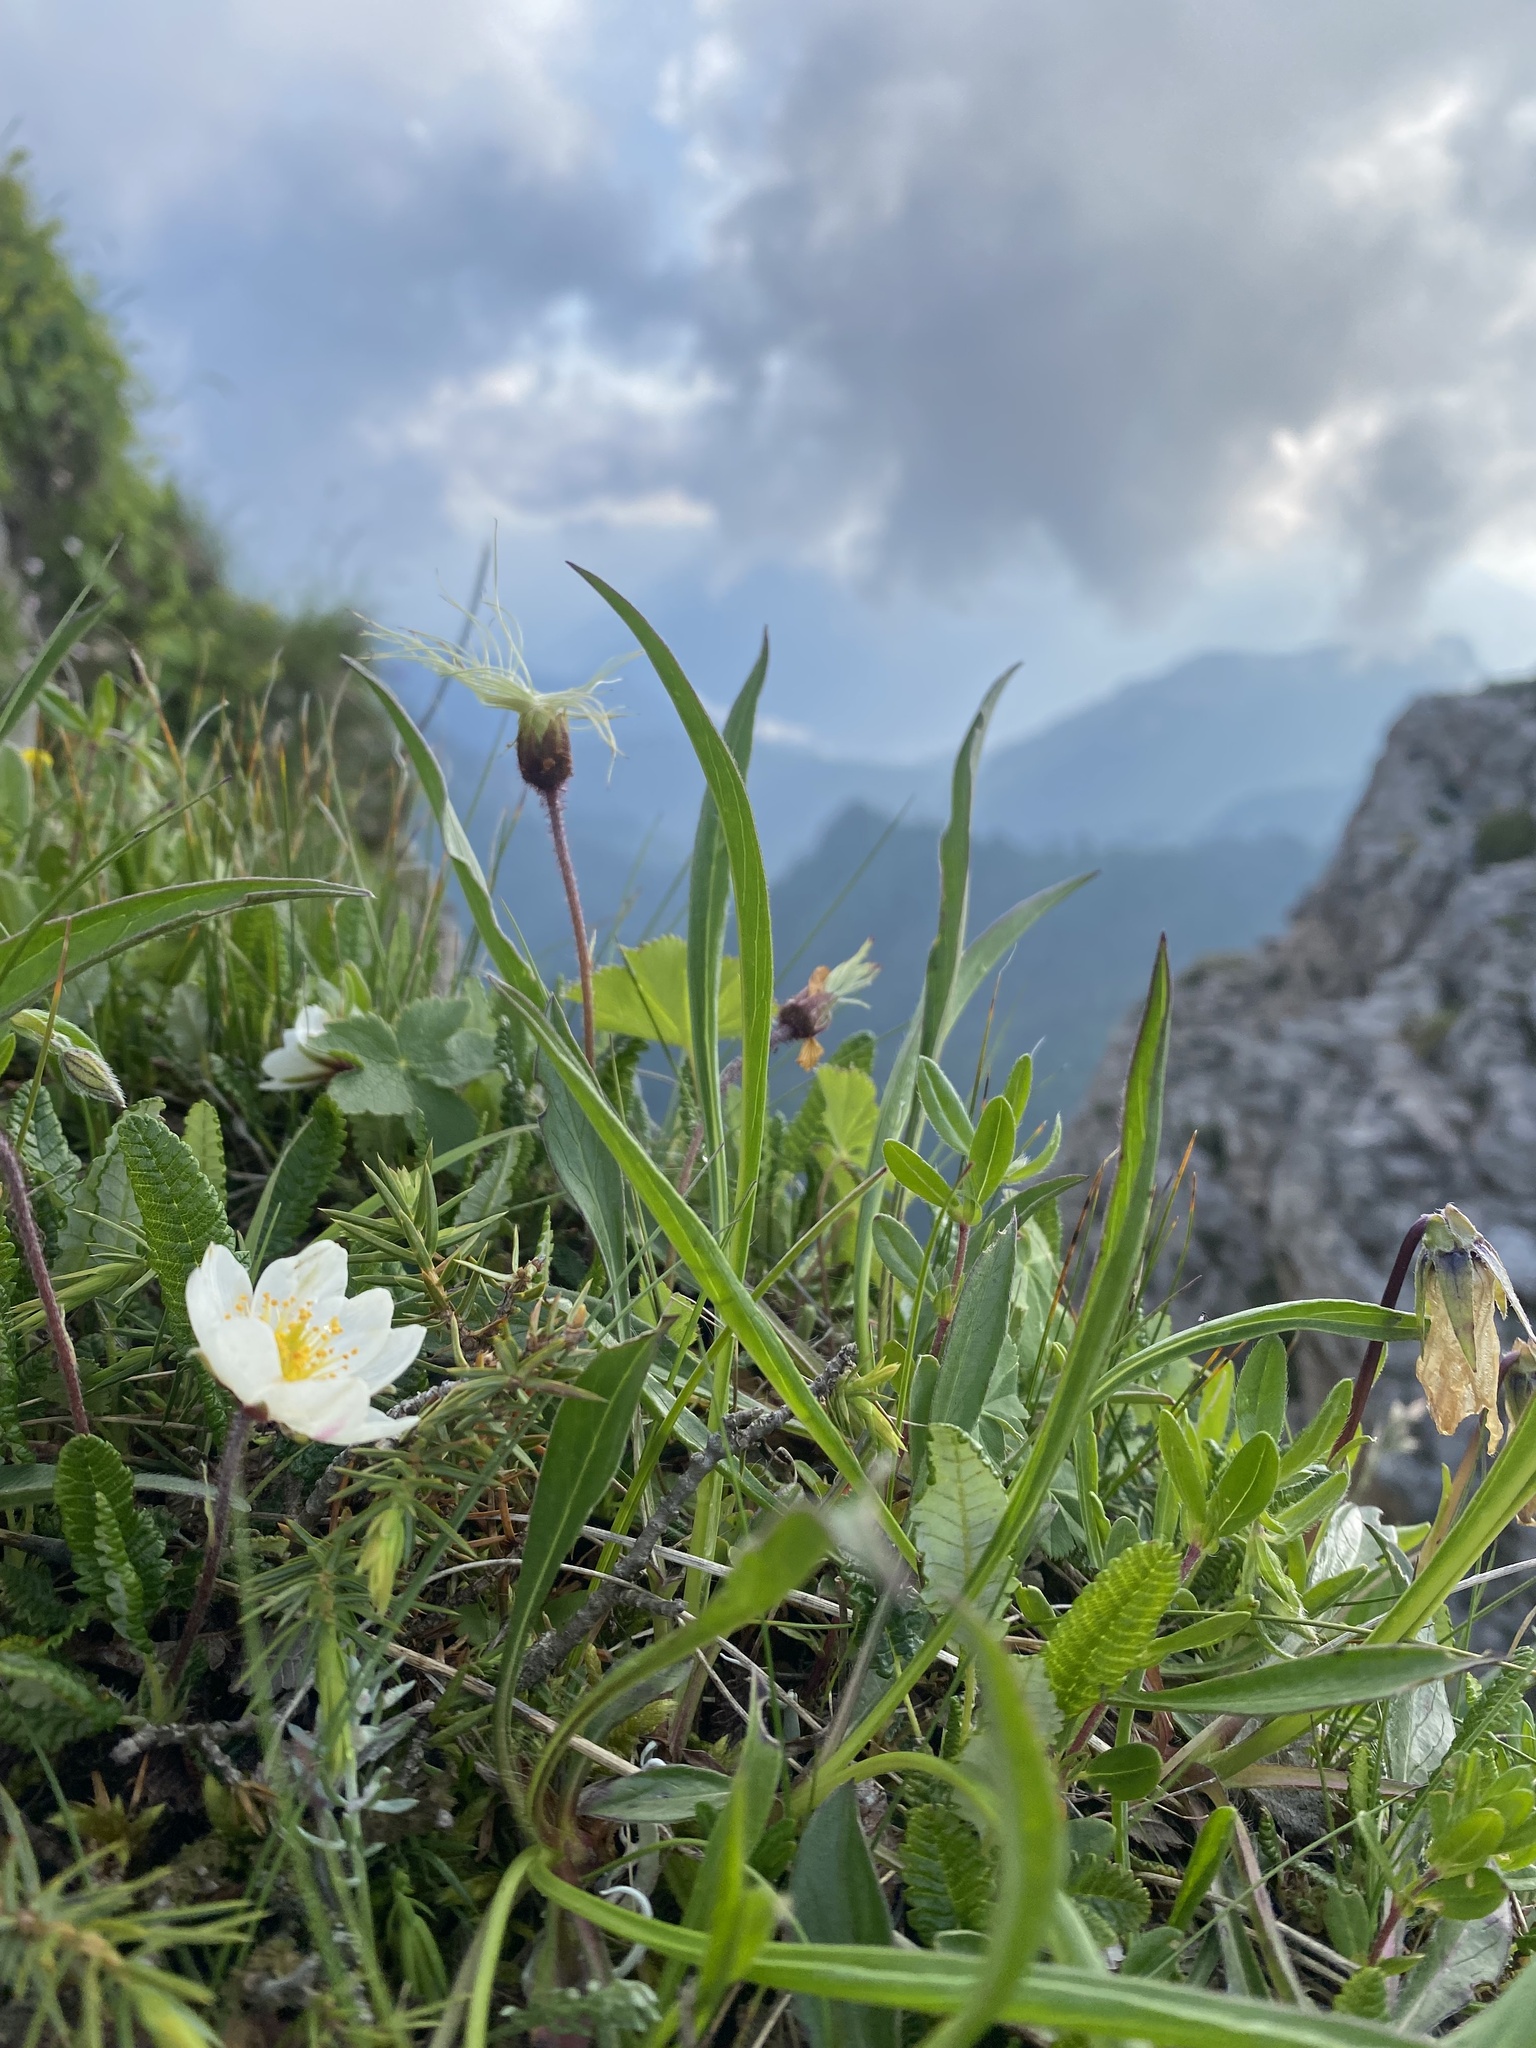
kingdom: Plantae
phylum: Tracheophyta
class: Magnoliopsida
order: Rosales
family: Rosaceae
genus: Dryas
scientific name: Dryas octopetala
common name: Eight-petal mountain-avens
